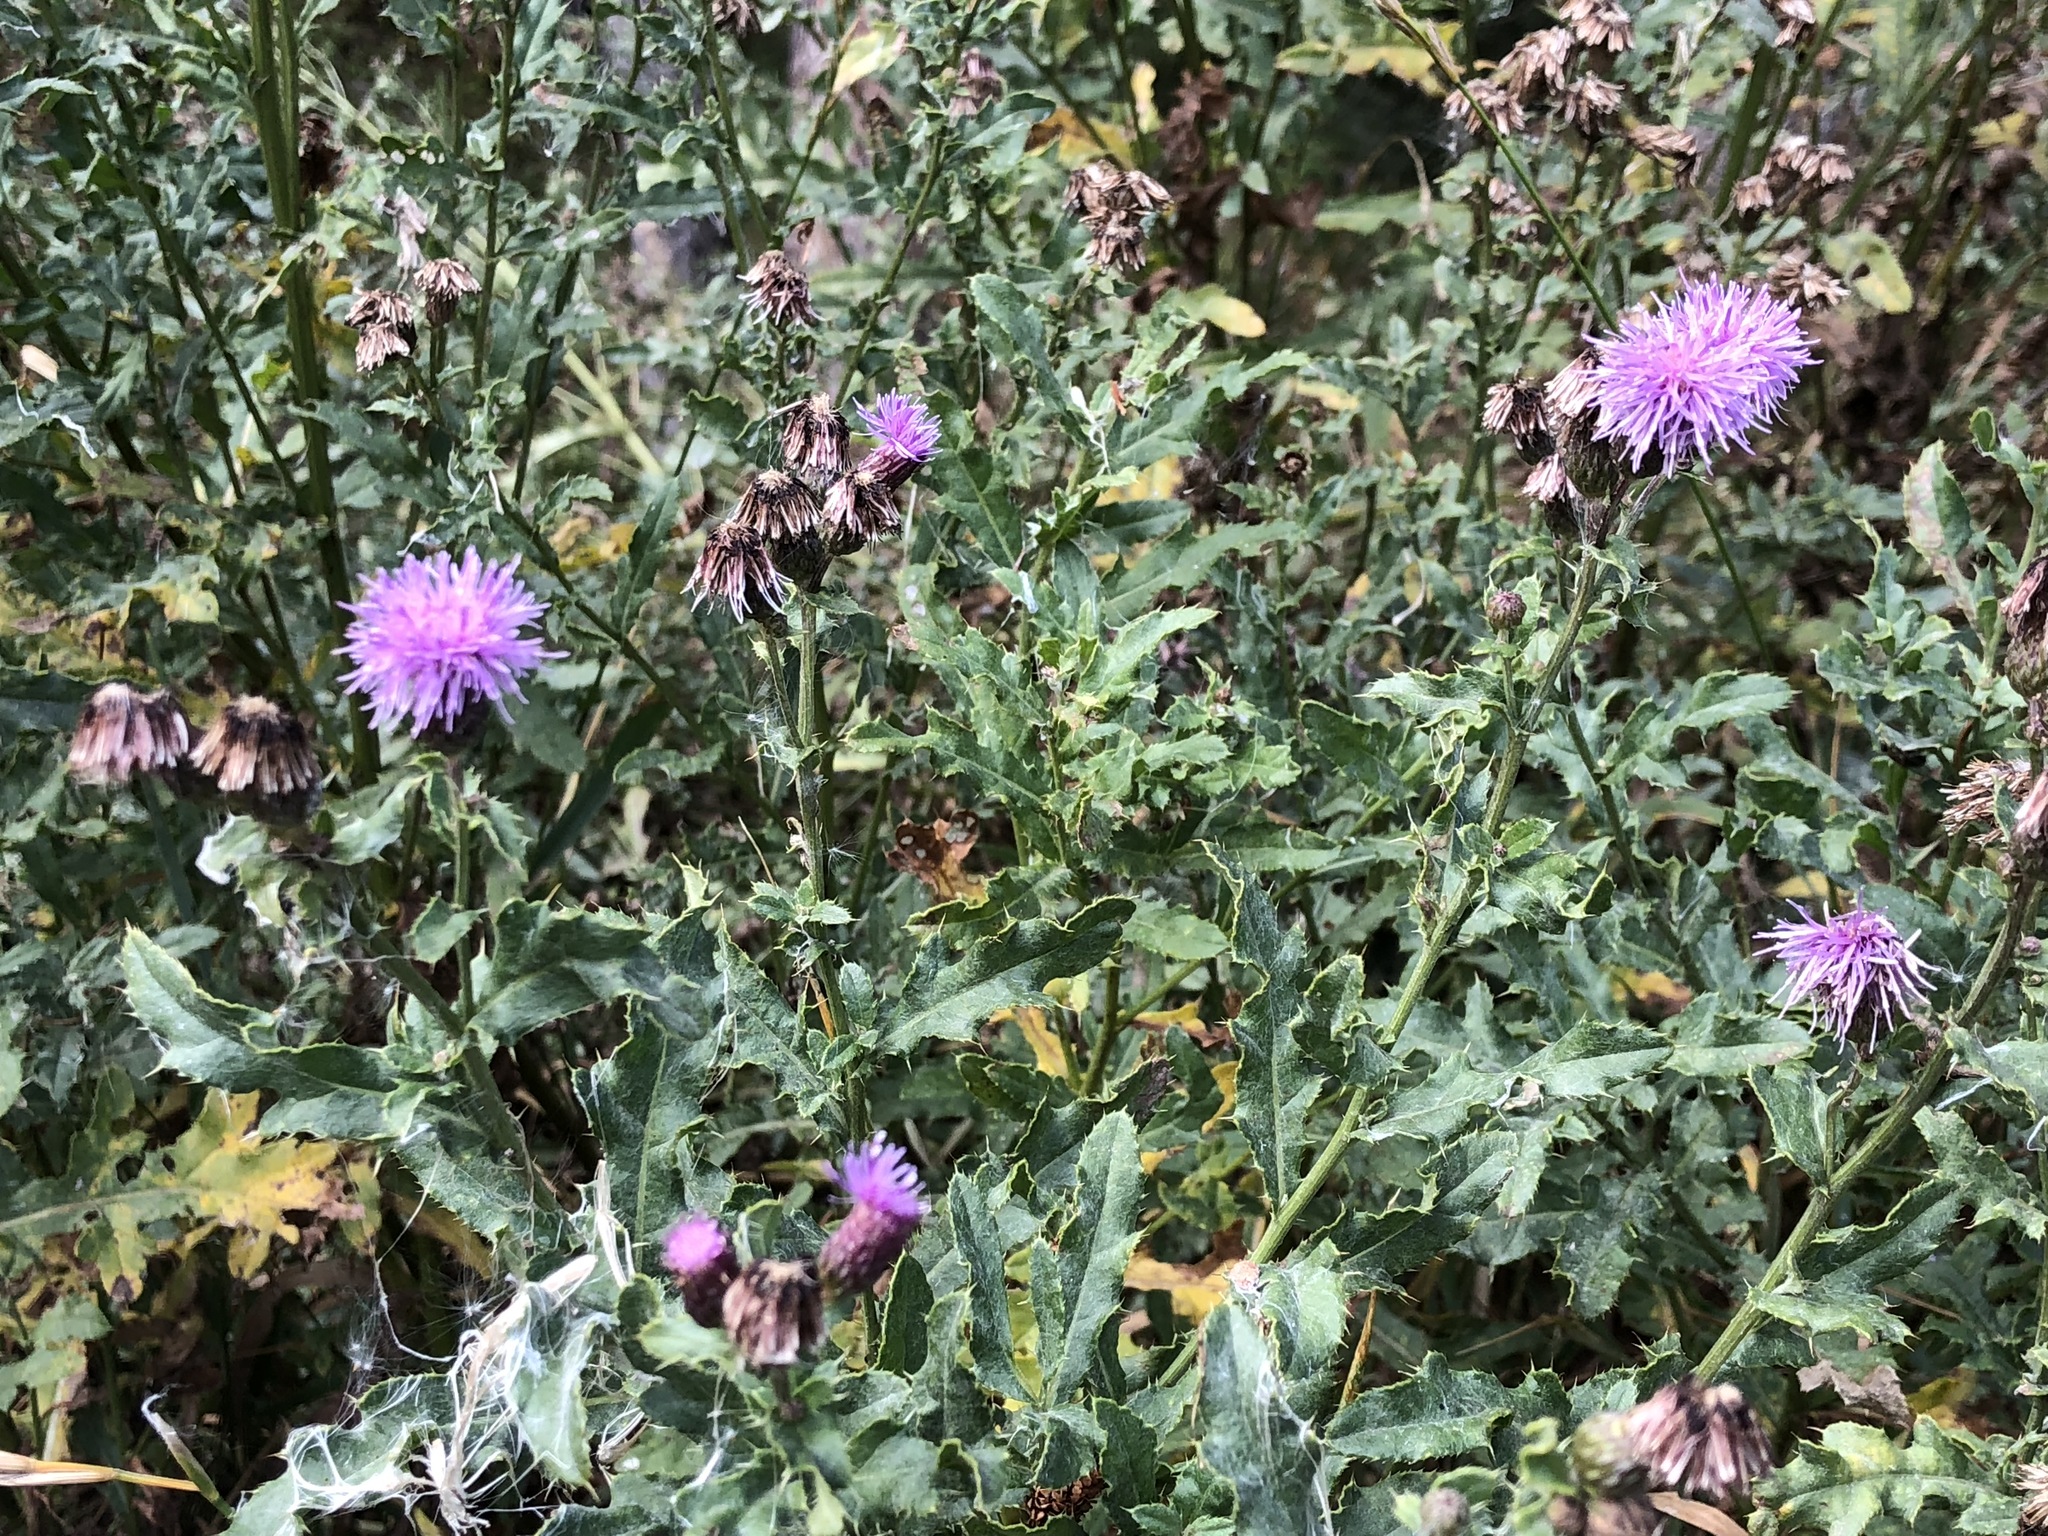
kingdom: Plantae
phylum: Tracheophyta
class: Magnoliopsida
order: Asterales
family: Asteraceae
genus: Cirsium
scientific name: Cirsium arvense
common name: Creeping thistle
